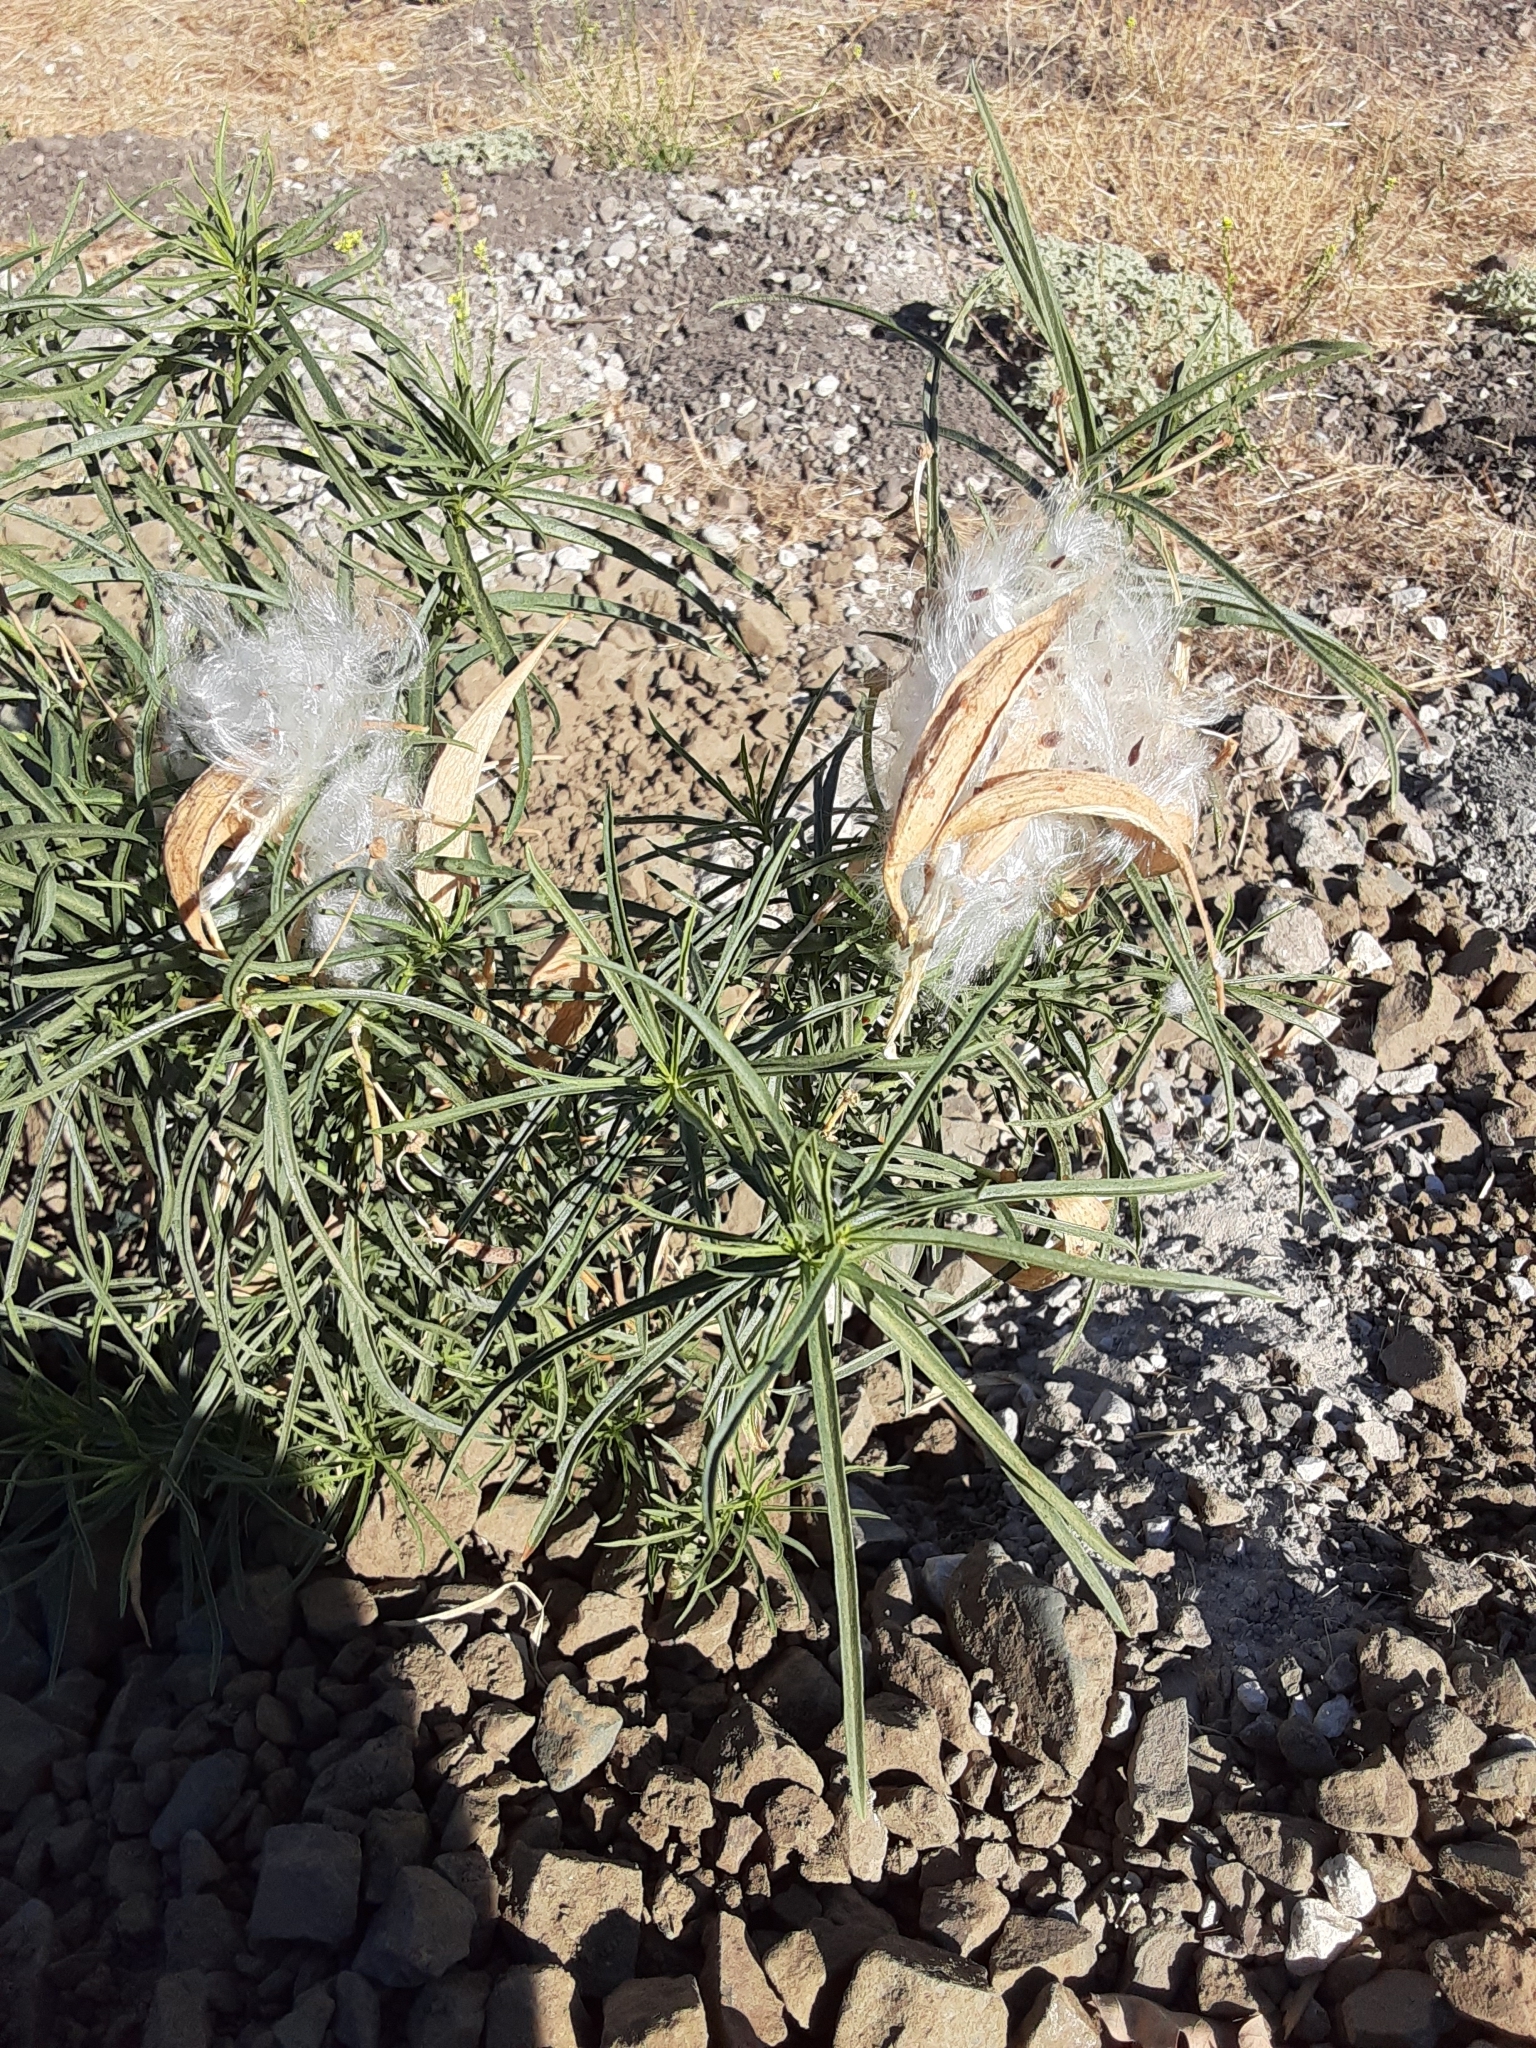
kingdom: Plantae
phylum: Tracheophyta
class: Magnoliopsida
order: Gentianales
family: Apocynaceae
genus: Asclepias
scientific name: Asclepias fascicularis
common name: Mexican milkweed
